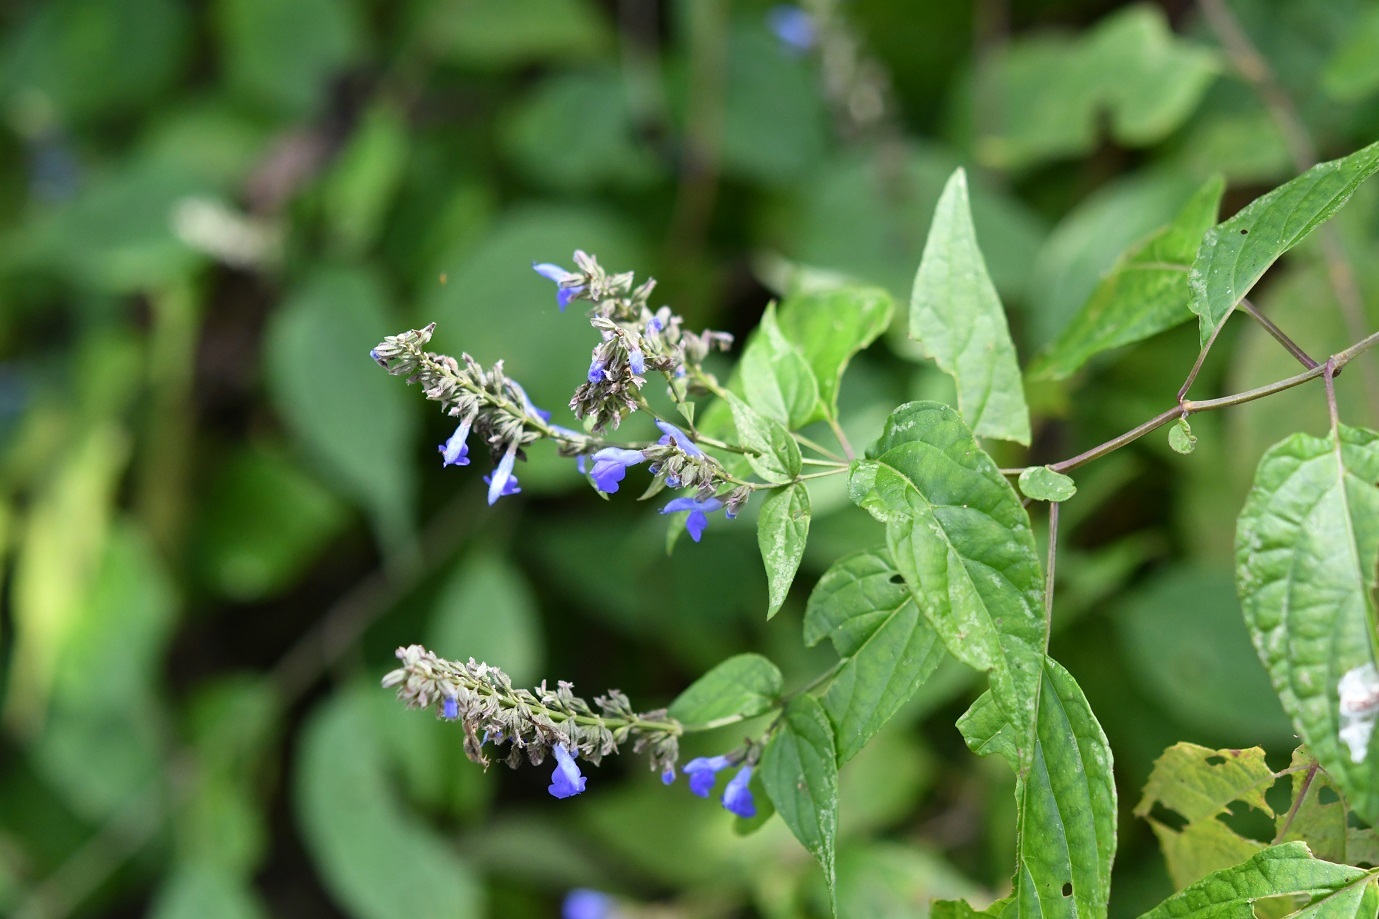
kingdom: Plantae
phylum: Tracheophyta
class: Magnoliopsida
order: Lamiales
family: Lamiaceae
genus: Salvia
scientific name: Salvia connivens
